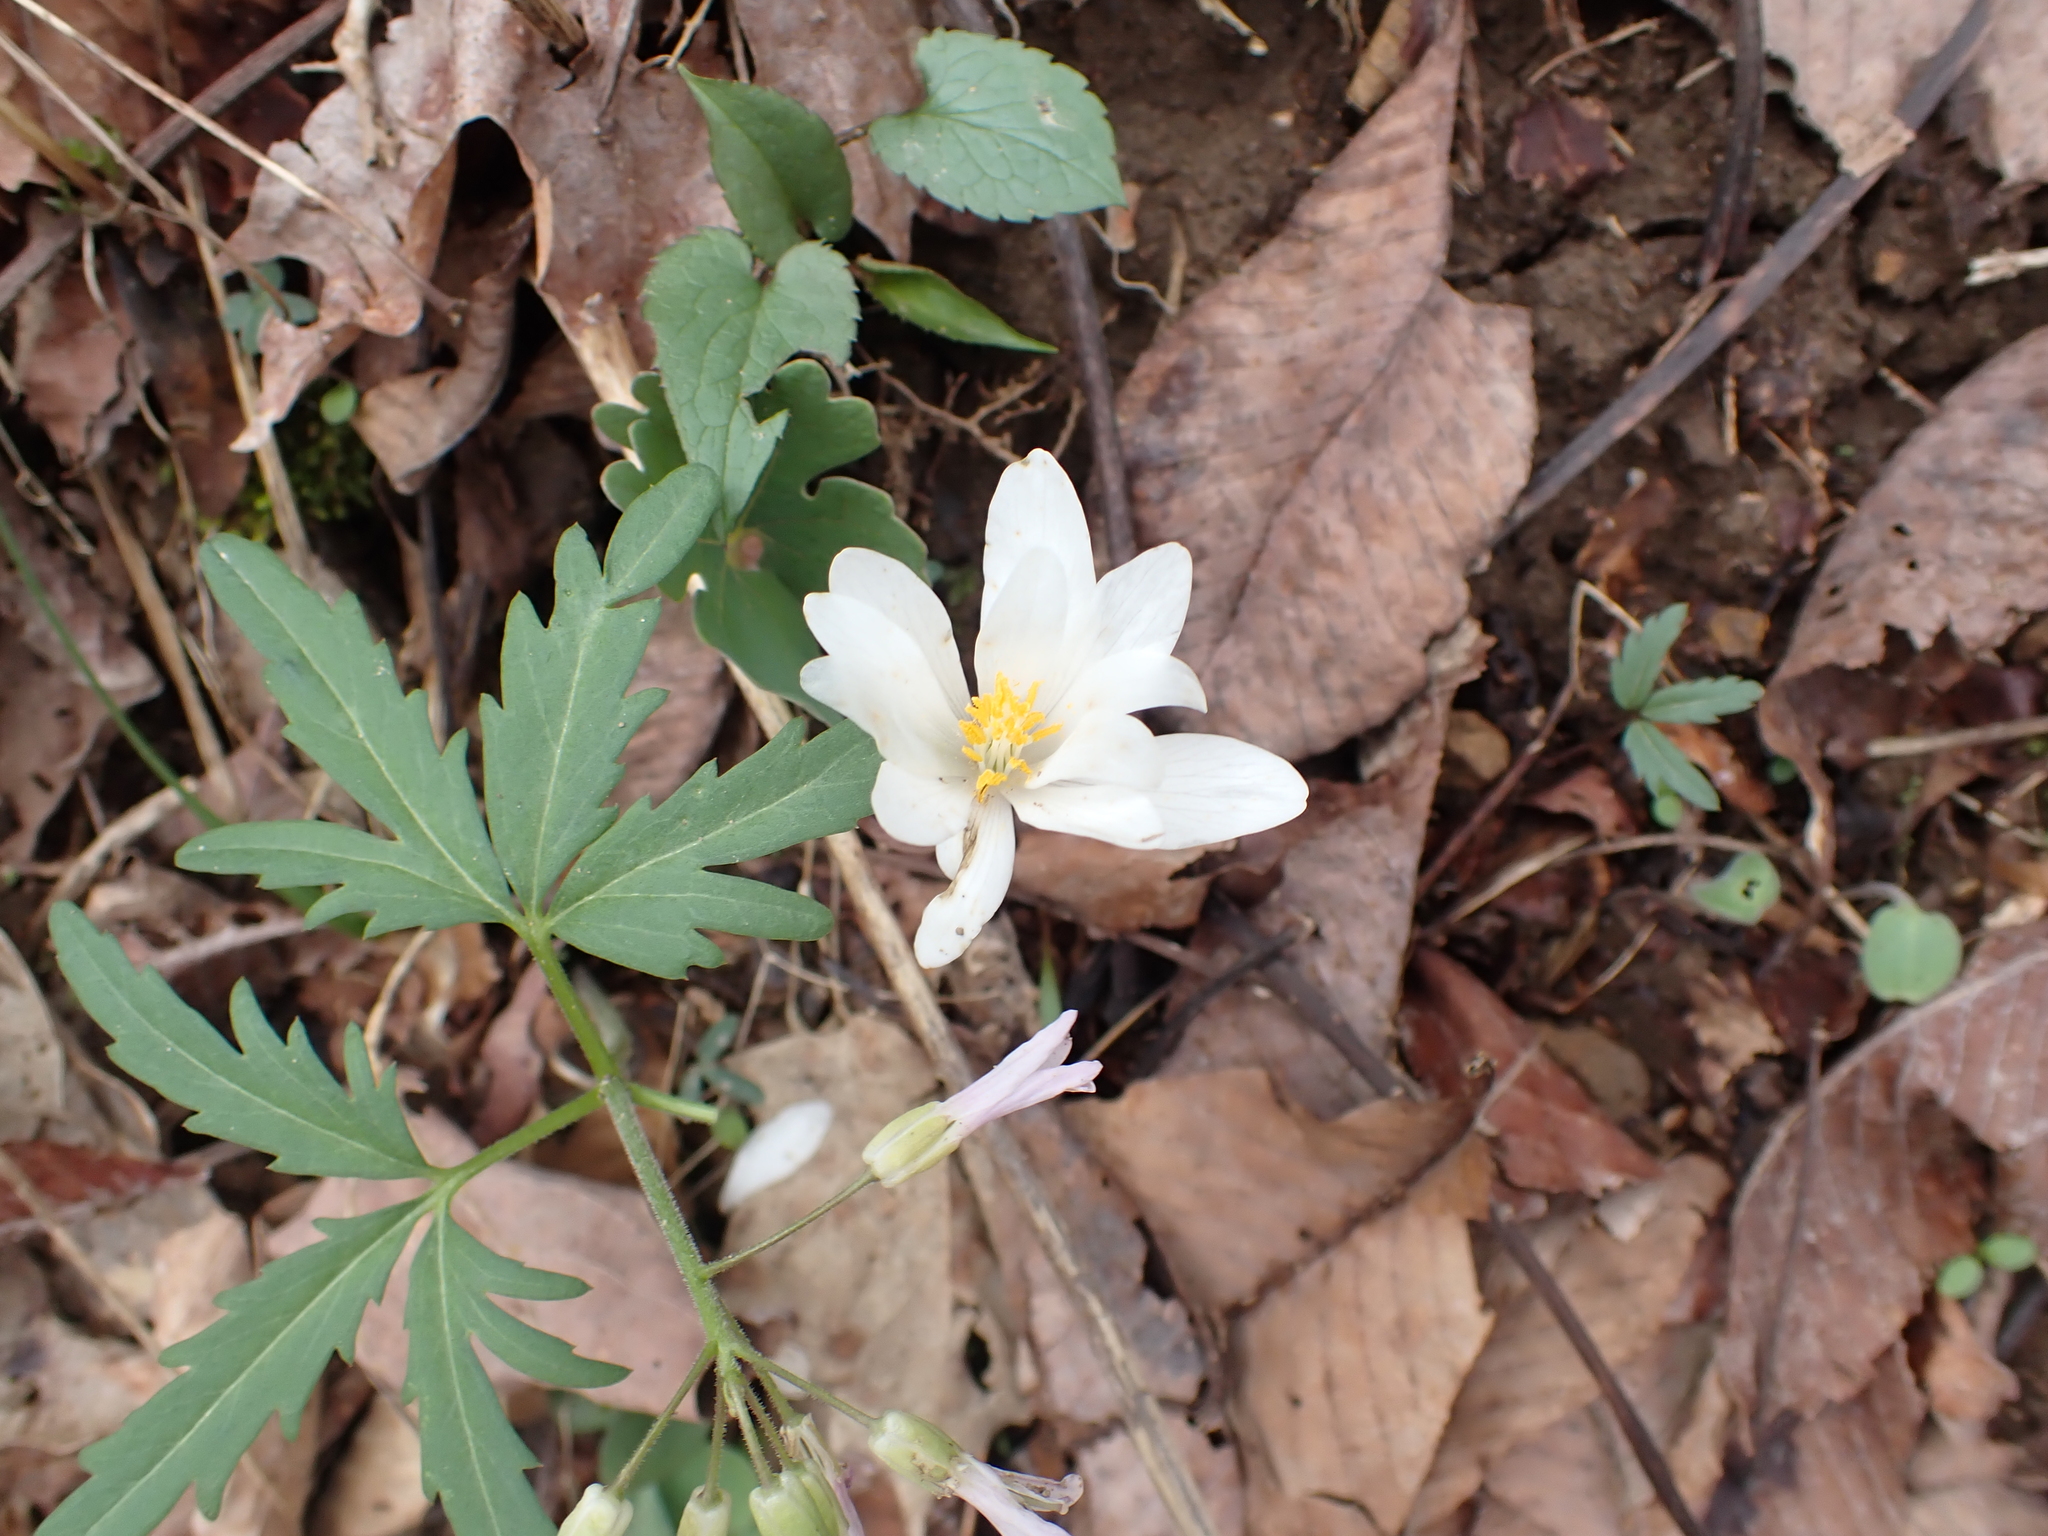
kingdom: Plantae
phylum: Tracheophyta
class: Magnoliopsida
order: Ranunculales
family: Papaveraceae
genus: Sanguinaria
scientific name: Sanguinaria canadensis
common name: Bloodroot
